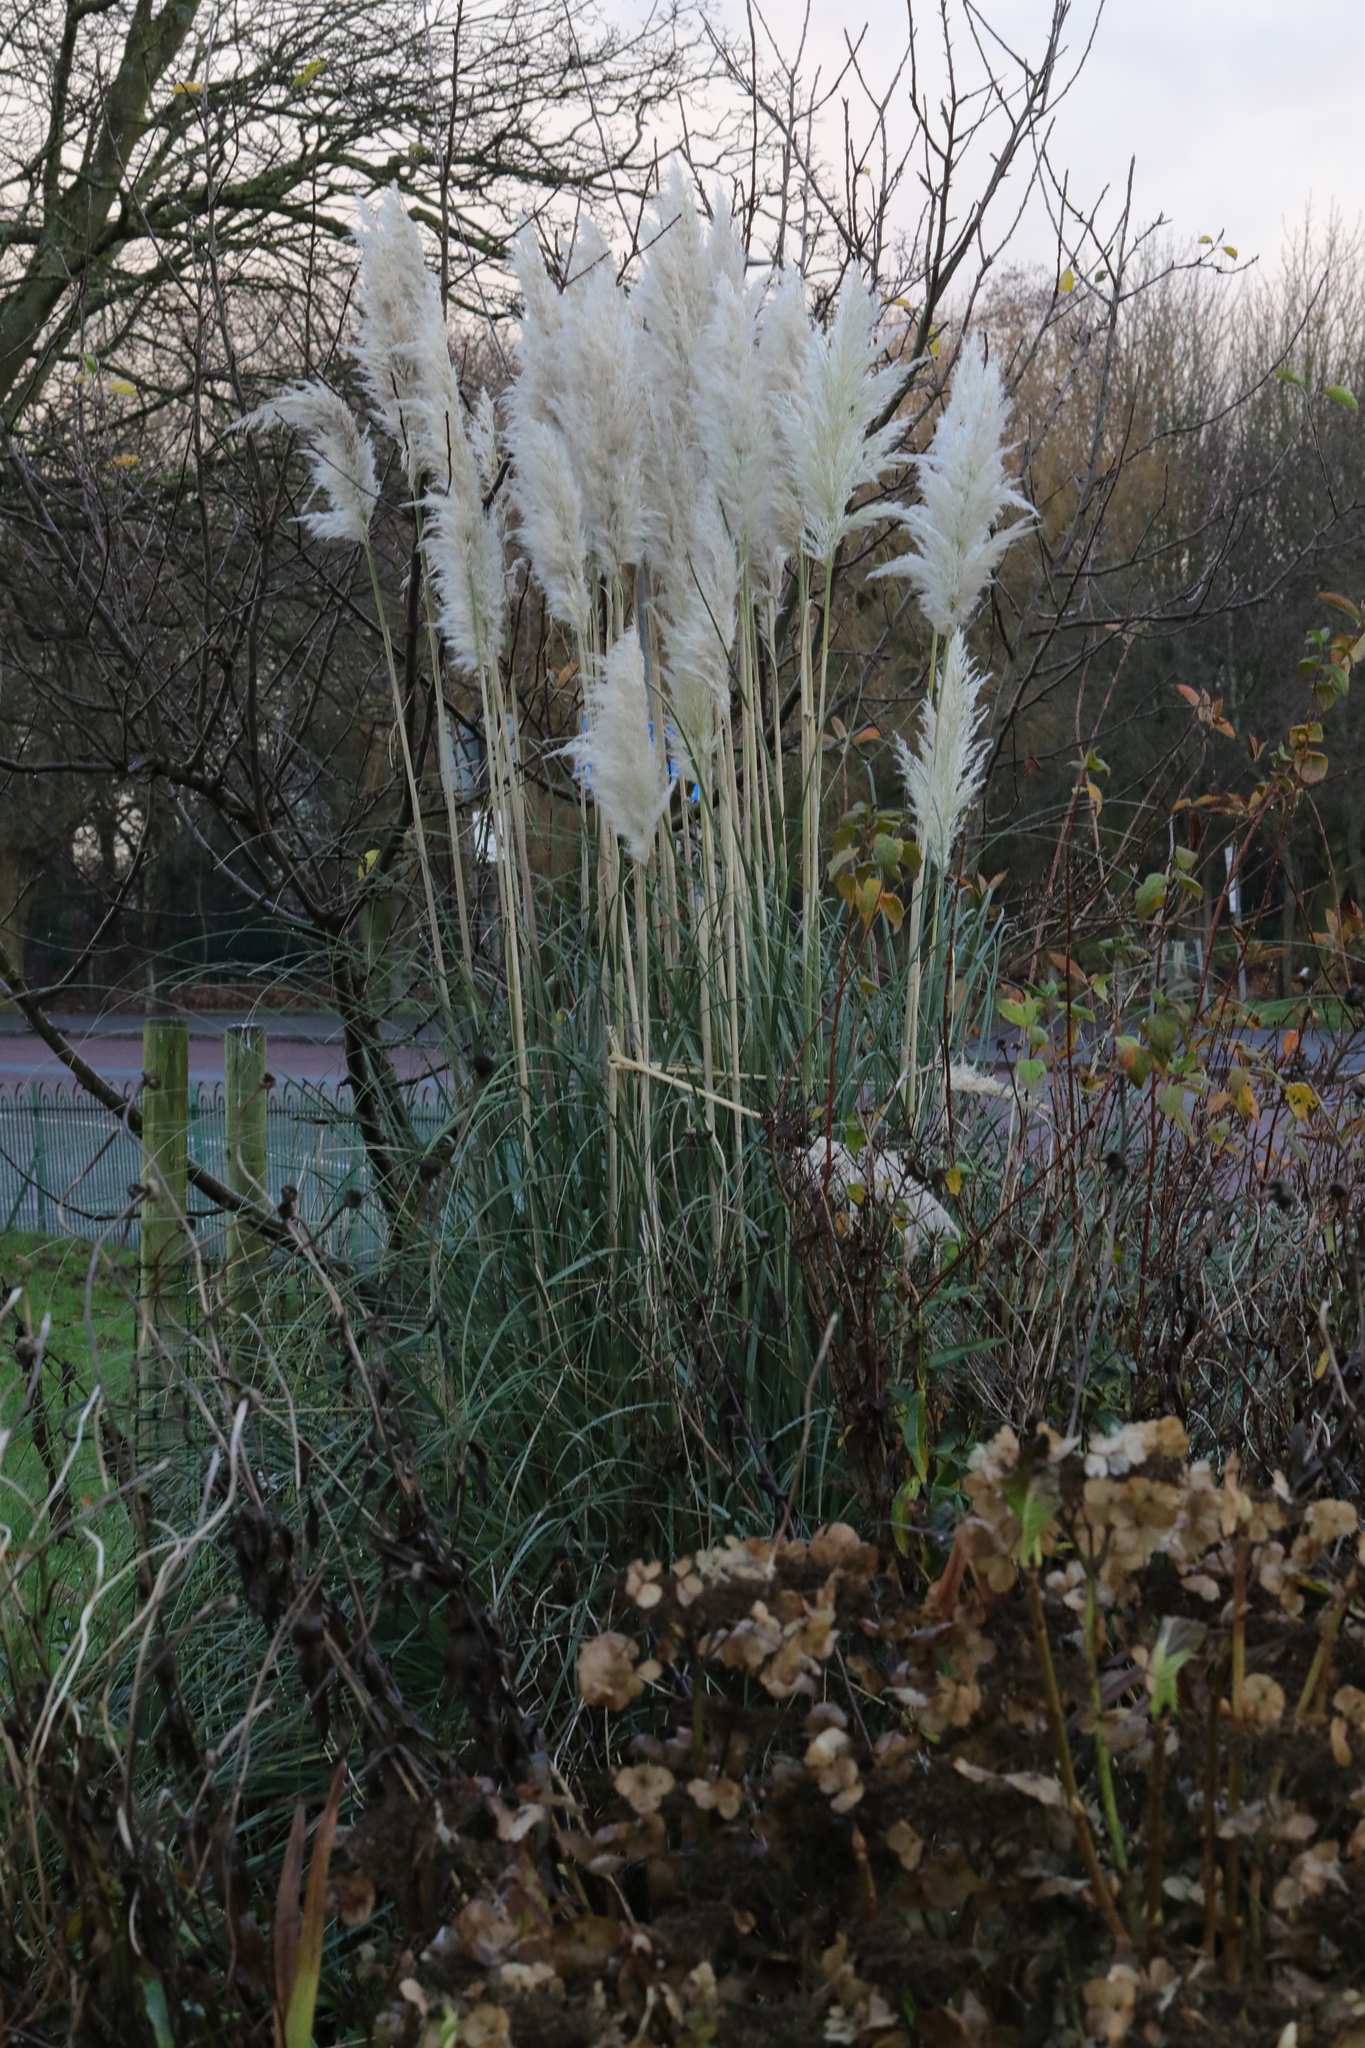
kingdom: Plantae
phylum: Tracheophyta
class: Liliopsida
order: Poales
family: Poaceae
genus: Cortaderia
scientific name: Cortaderia selloana
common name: Uruguayan pampas grass
